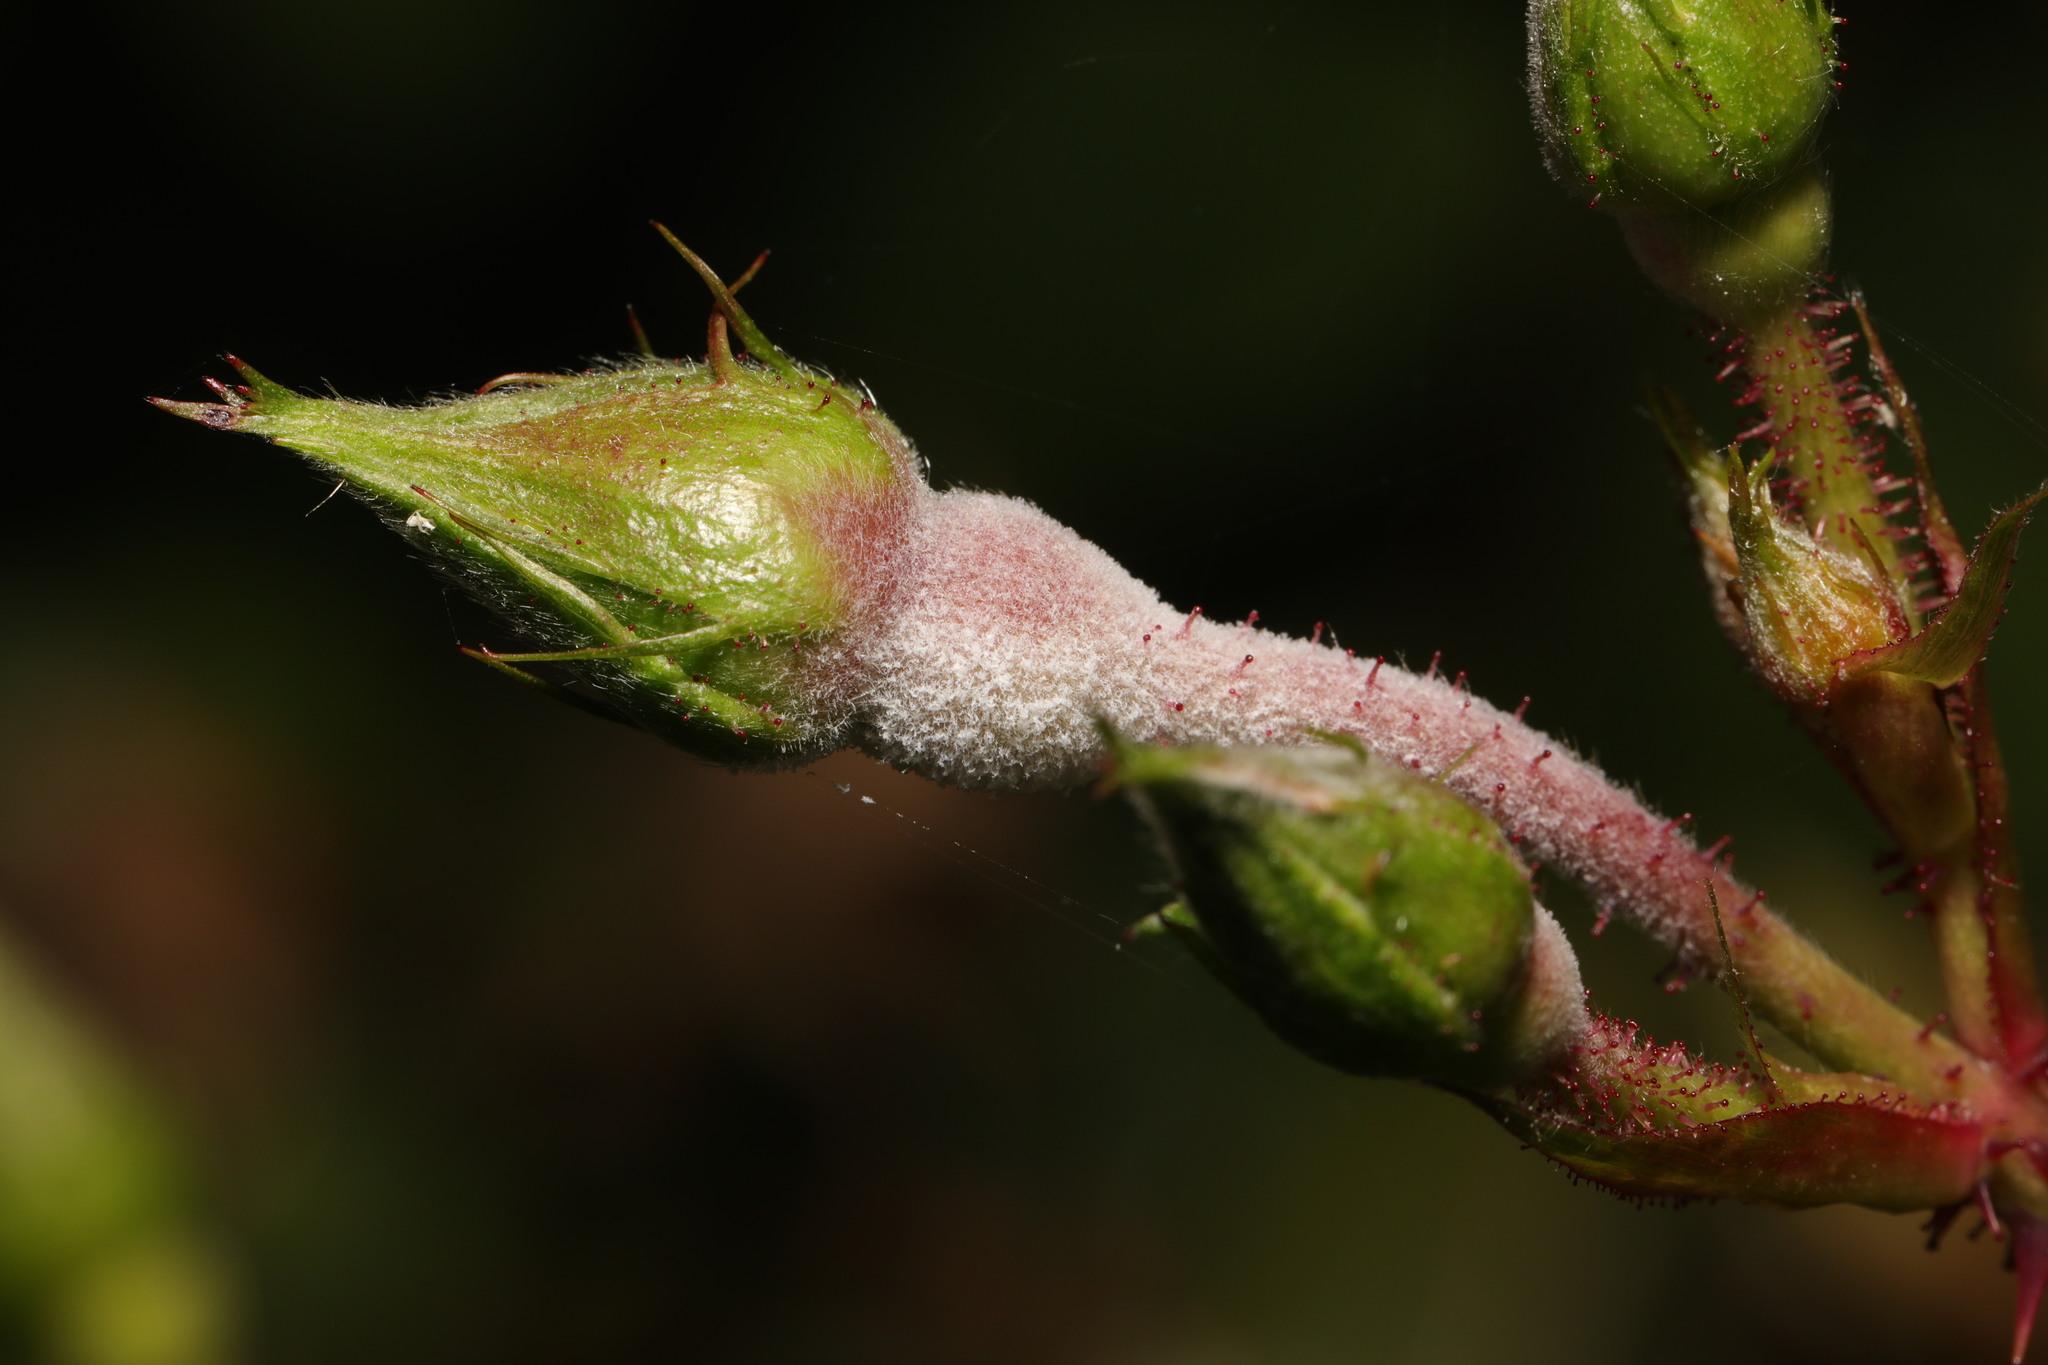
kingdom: Fungi
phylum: Ascomycota
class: Leotiomycetes
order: Helotiales
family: Erysiphaceae
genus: Podosphaera
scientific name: Podosphaera pannosa
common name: Rose mildew
